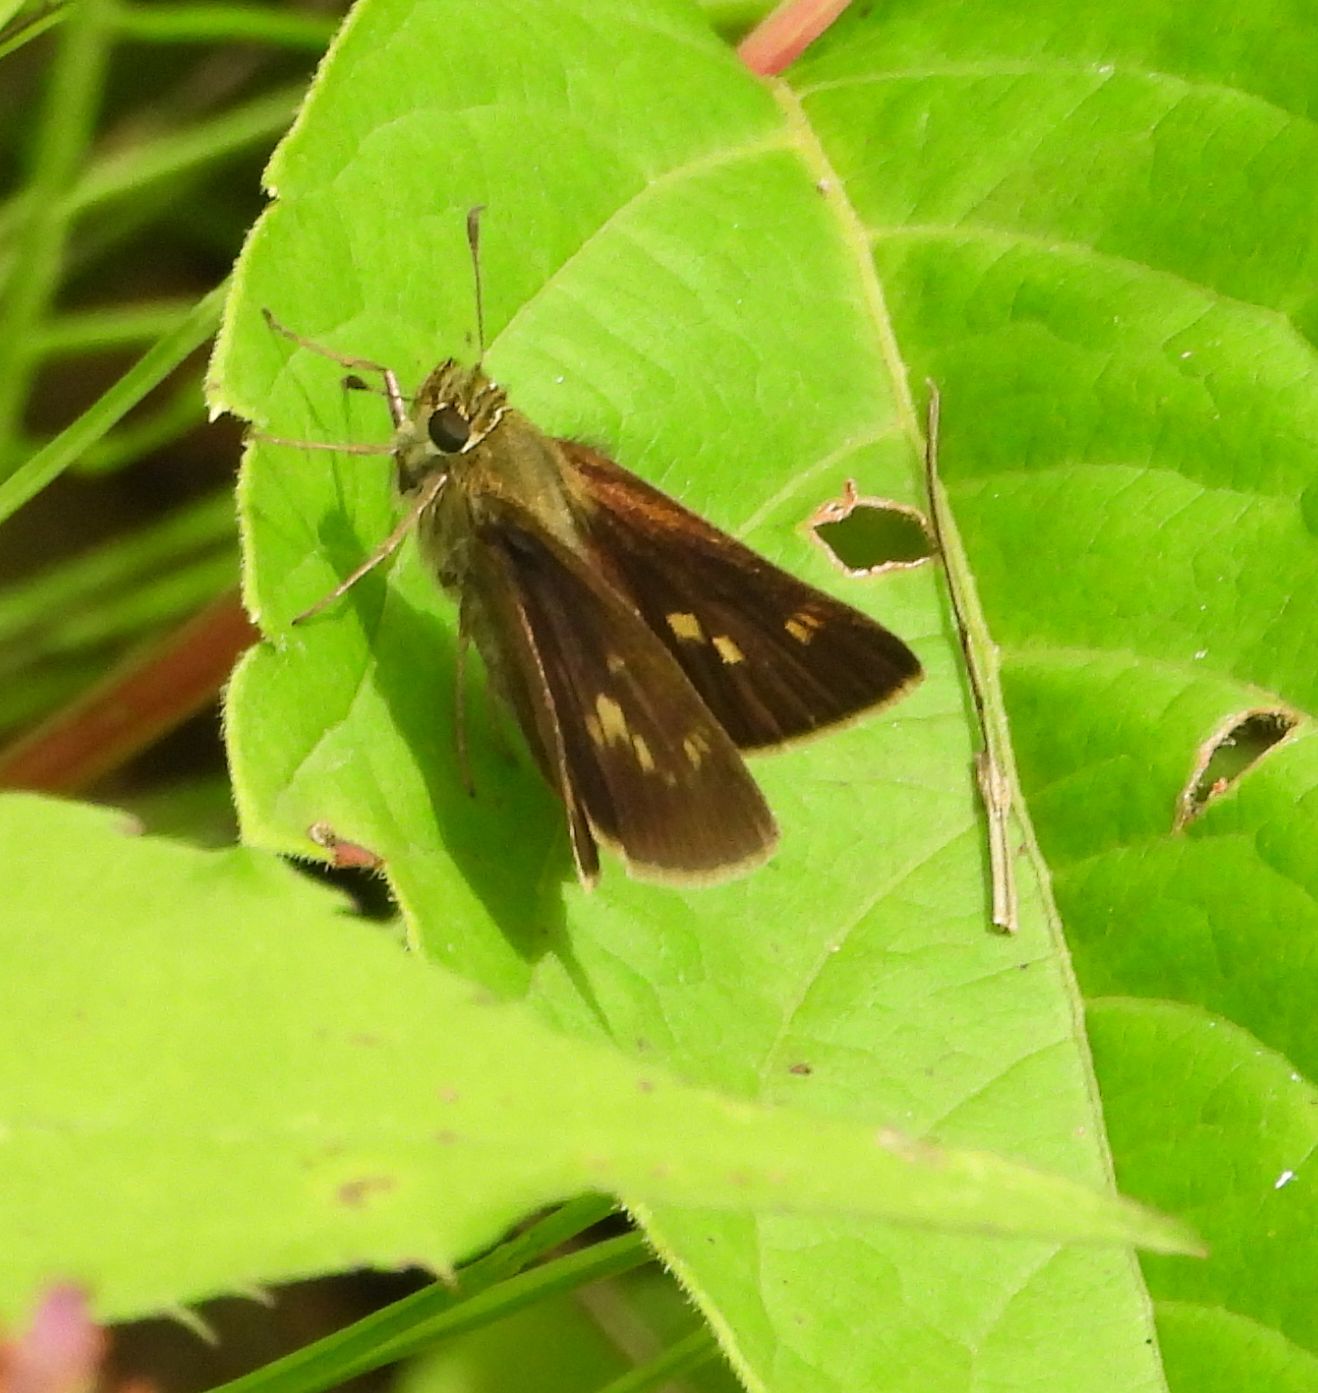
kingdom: Animalia
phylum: Arthropoda
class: Insecta
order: Lepidoptera
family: Hesperiidae
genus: Polites
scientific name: Polites egeremet
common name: Northern broken-dash
